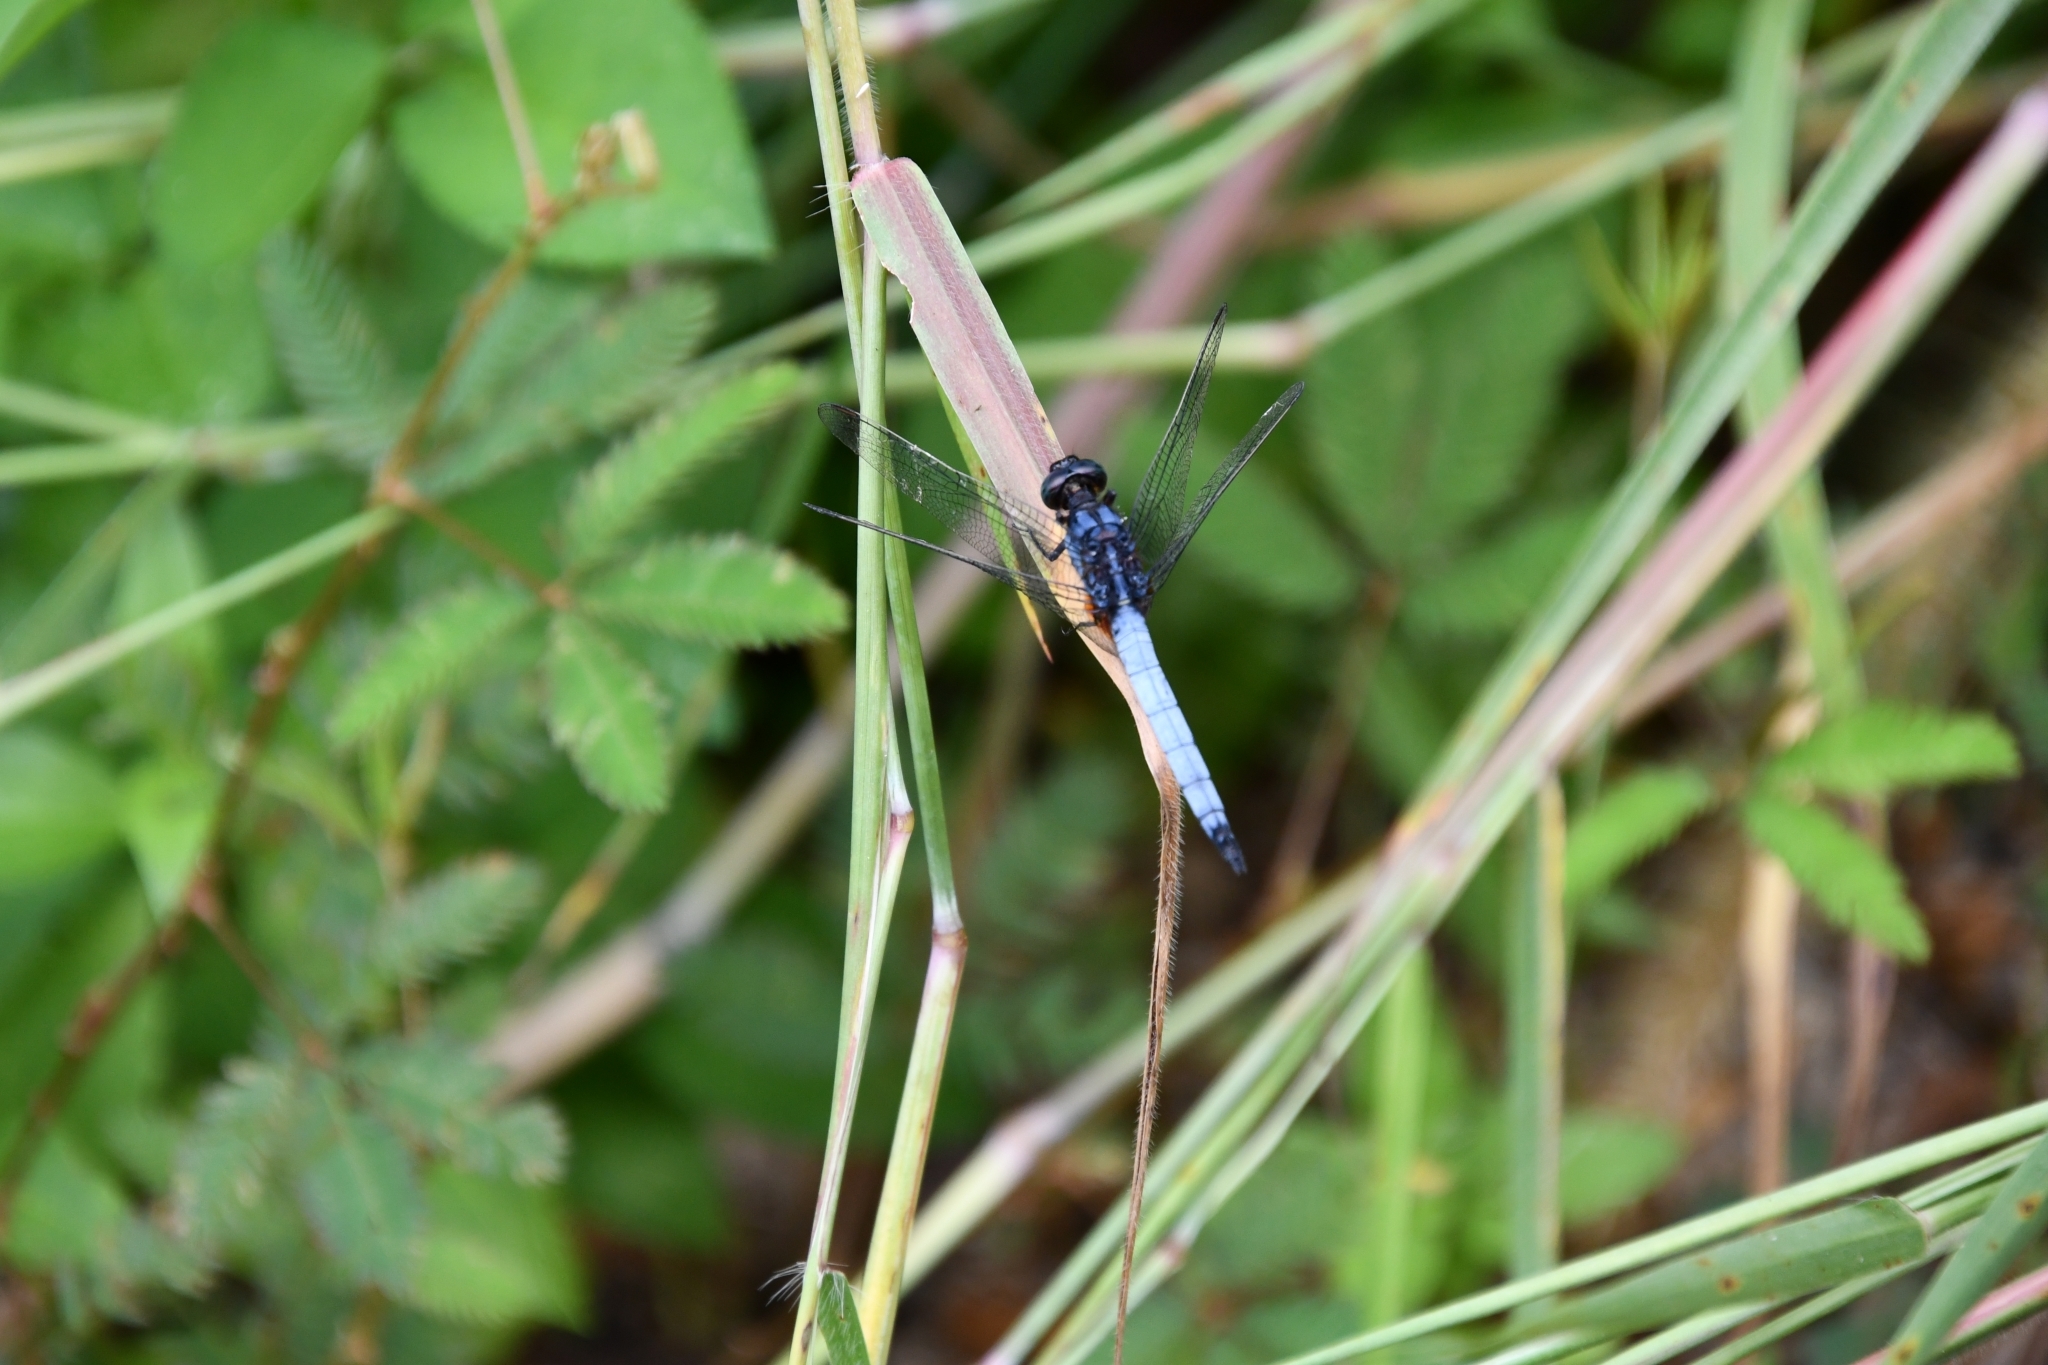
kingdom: Animalia
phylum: Arthropoda
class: Insecta
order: Odonata
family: Libellulidae
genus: Orthetrum
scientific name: Orthetrum glaucum
